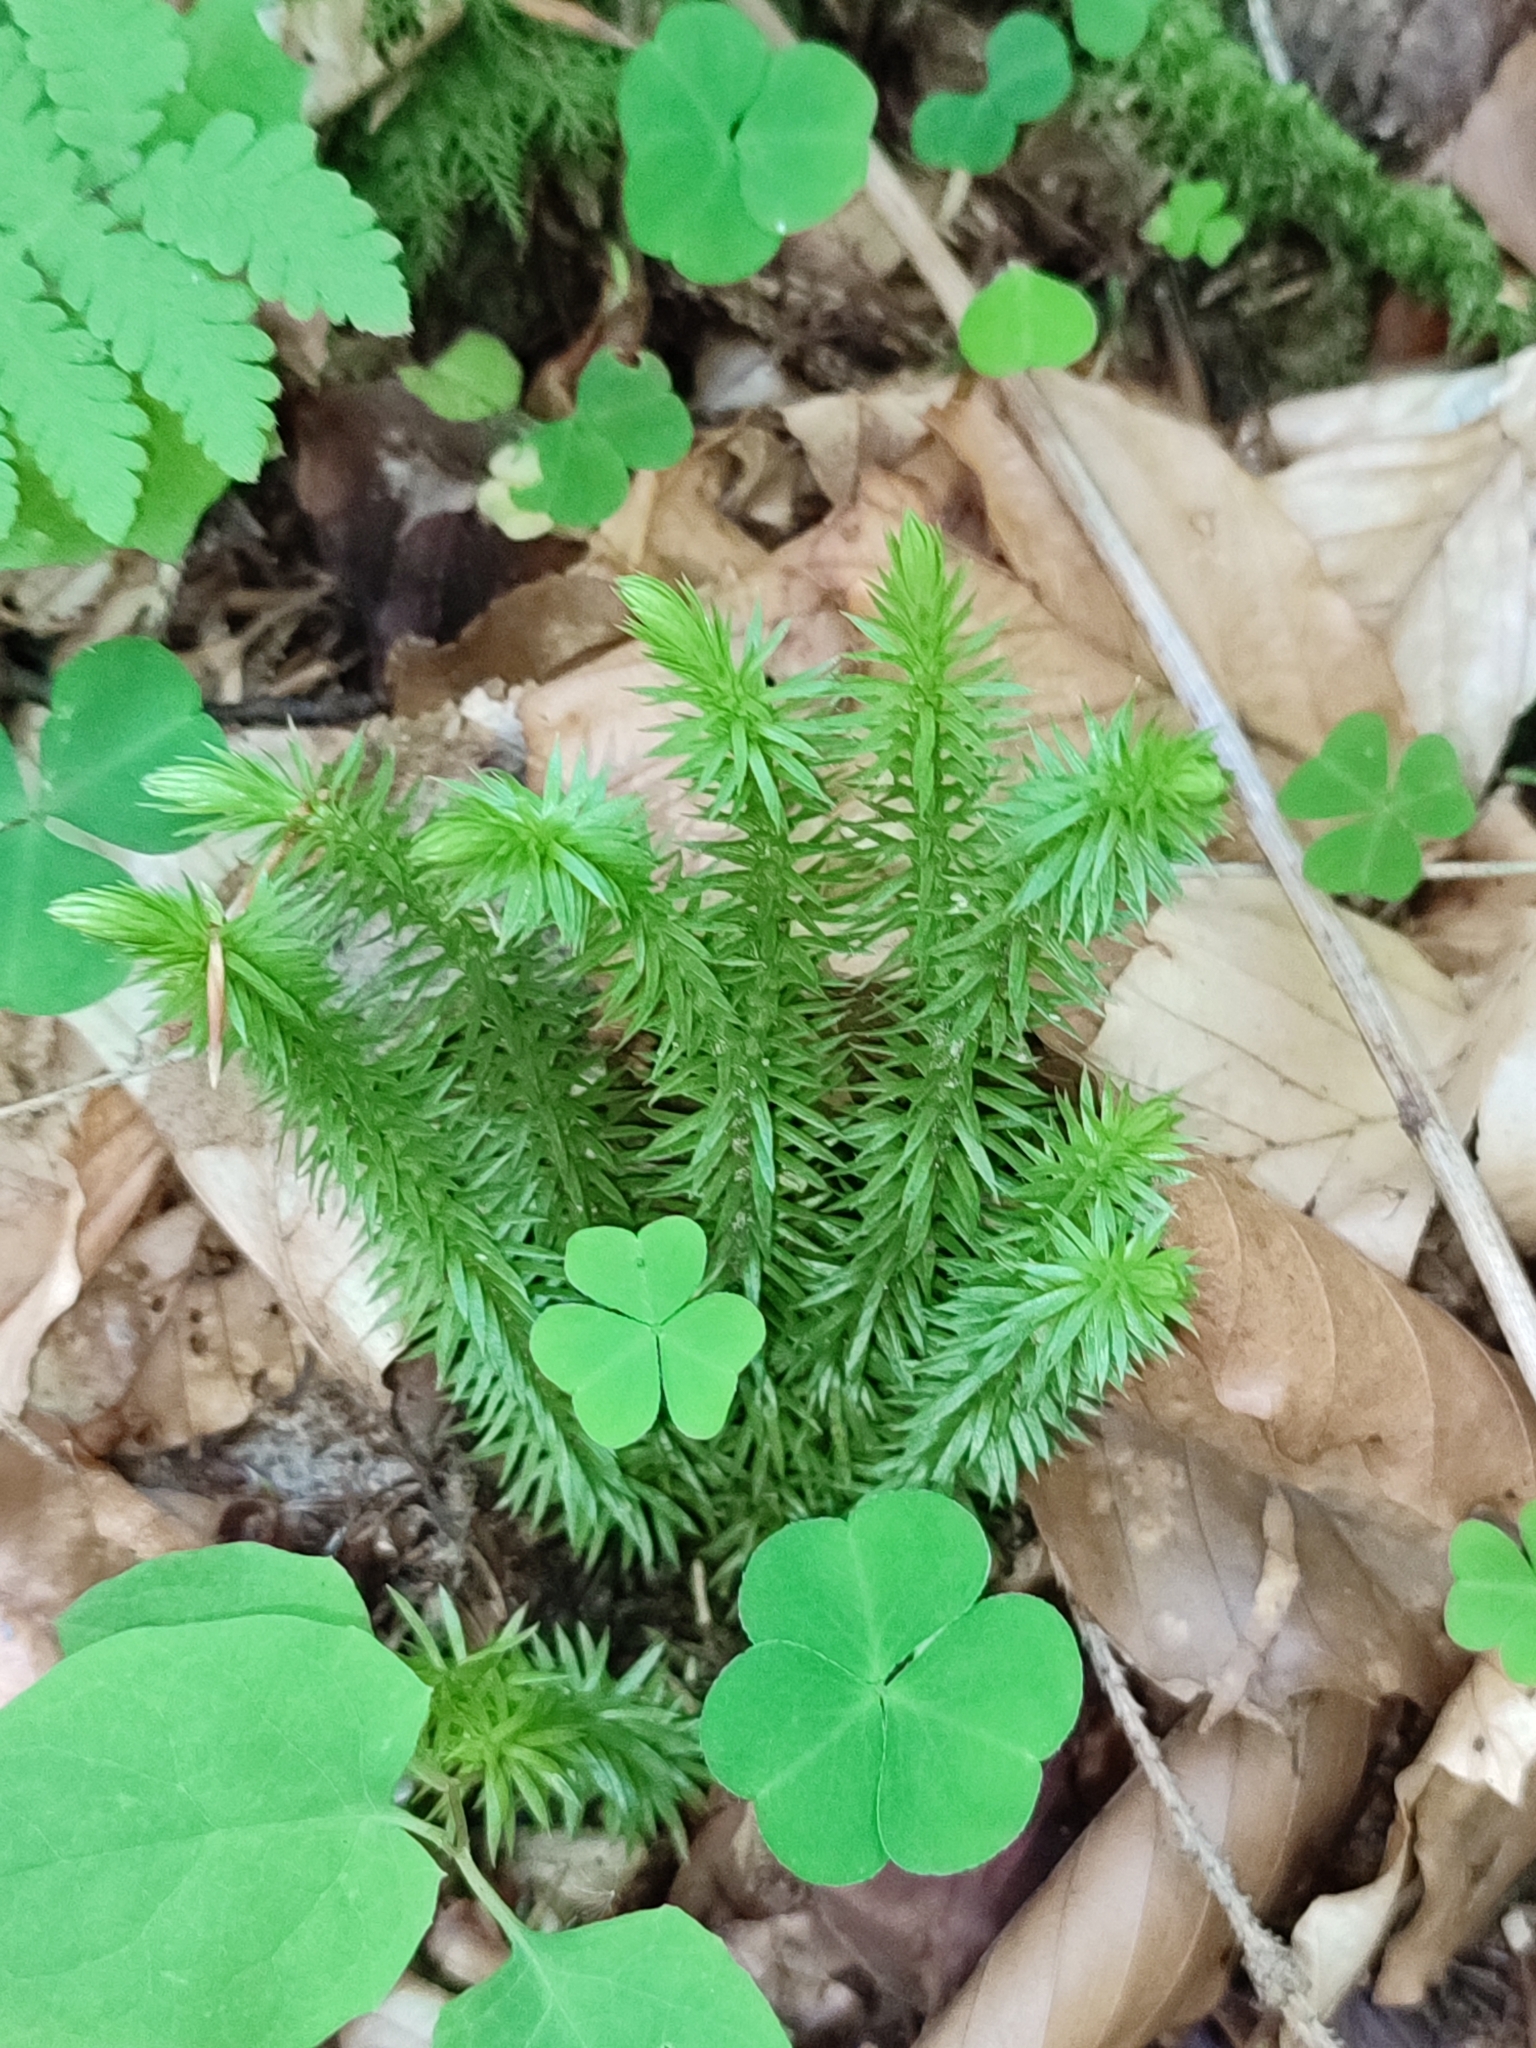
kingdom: Plantae
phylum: Tracheophyta
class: Lycopodiopsida
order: Lycopodiales
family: Lycopodiaceae
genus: Spinulum
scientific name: Spinulum annotinum
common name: Interrupted club-moss
